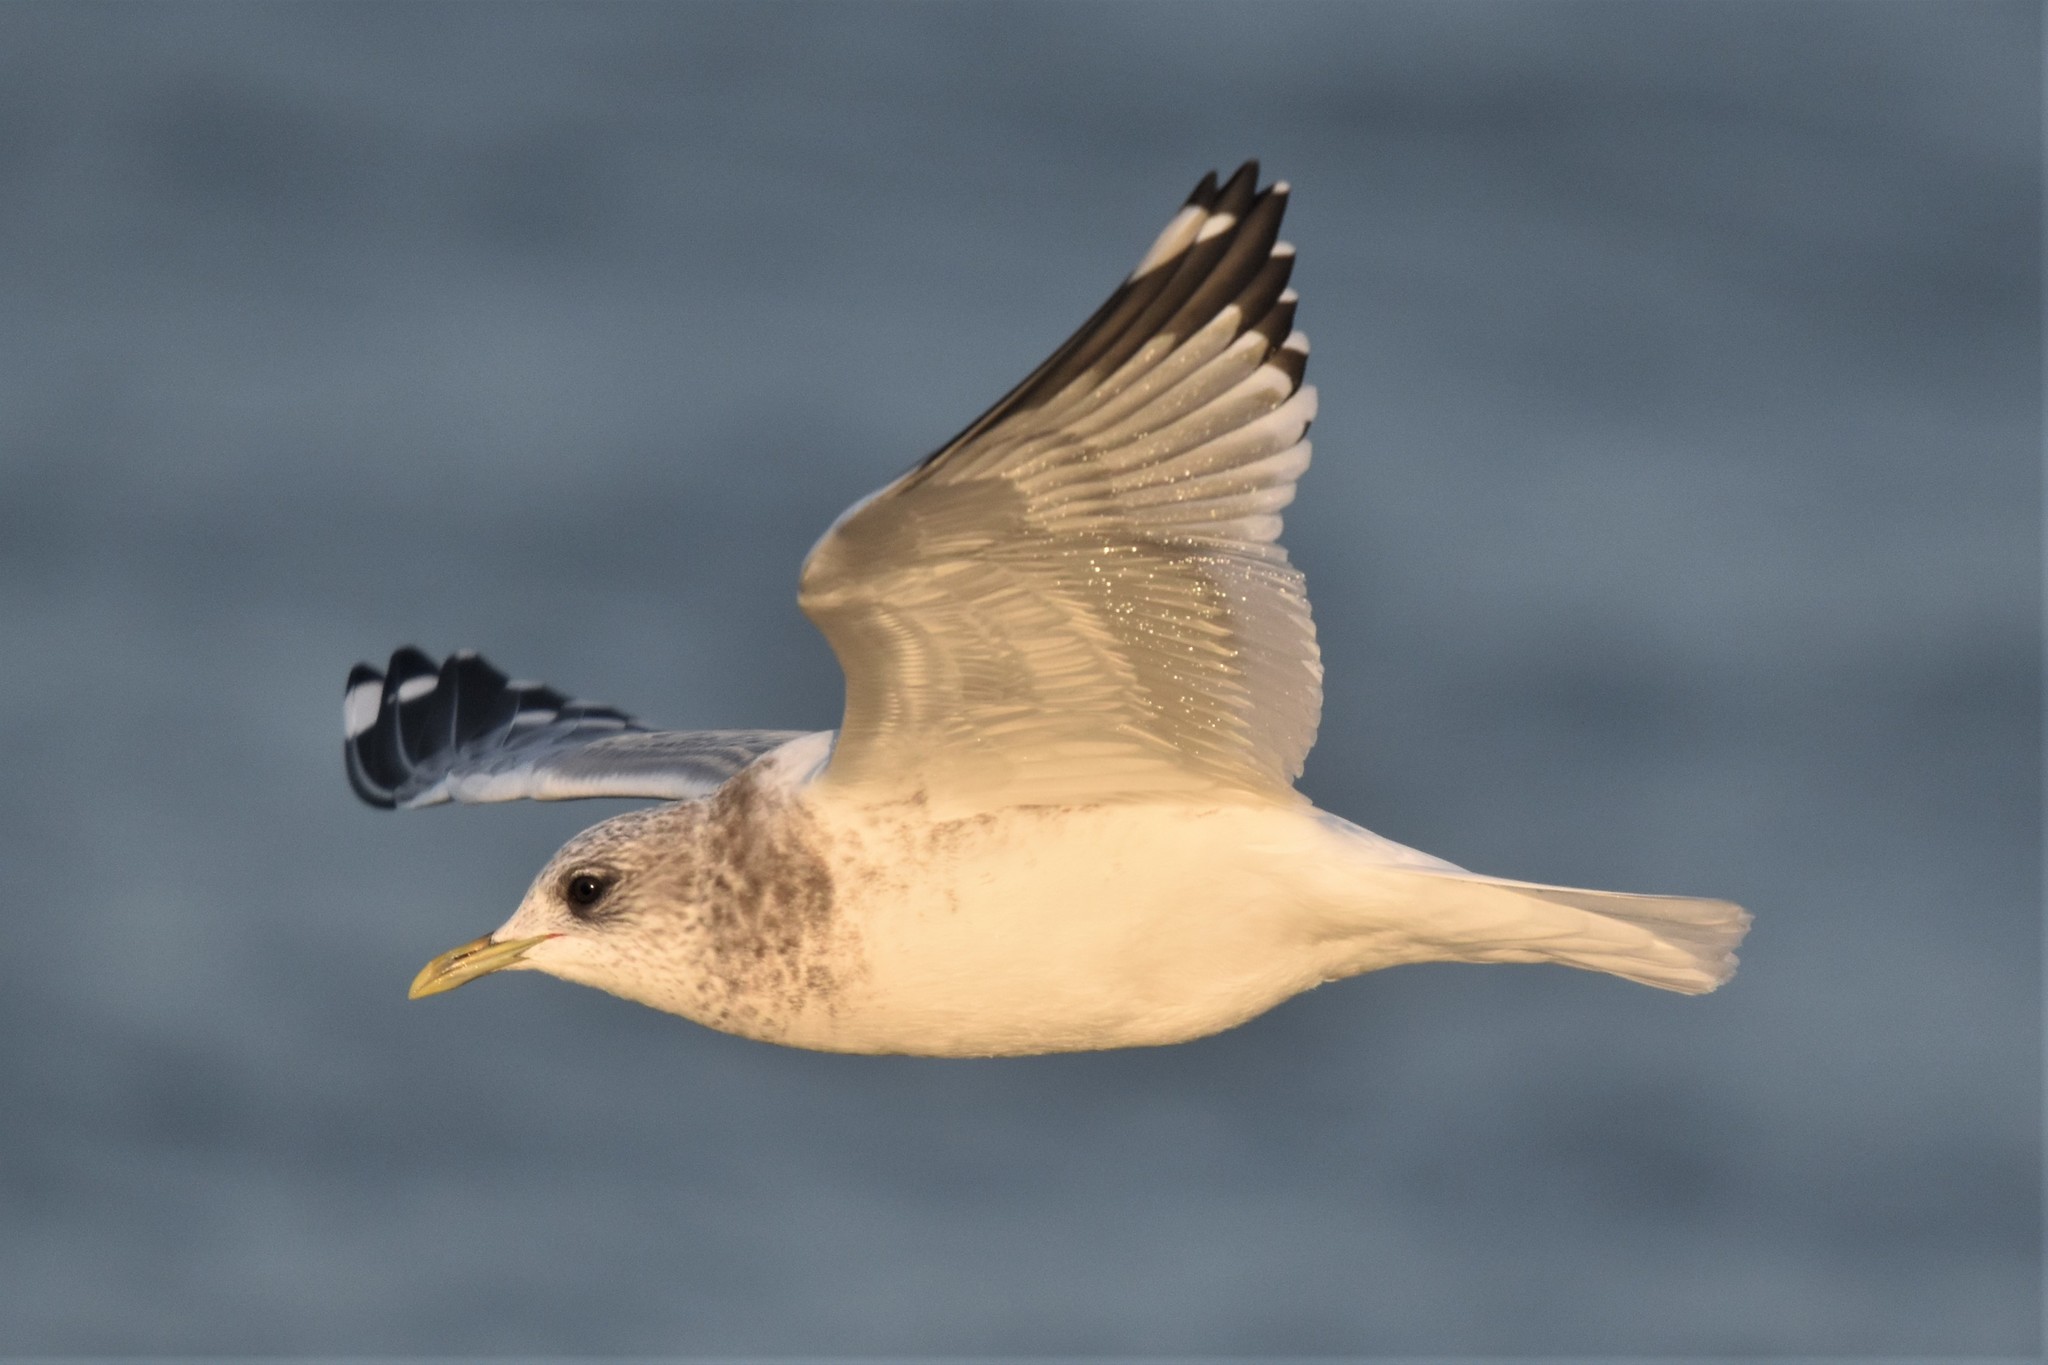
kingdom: Animalia
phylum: Chordata
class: Aves
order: Charadriiformes
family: Laridae
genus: Larus
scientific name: Larus brachyrhynchus
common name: Short-billed gull
